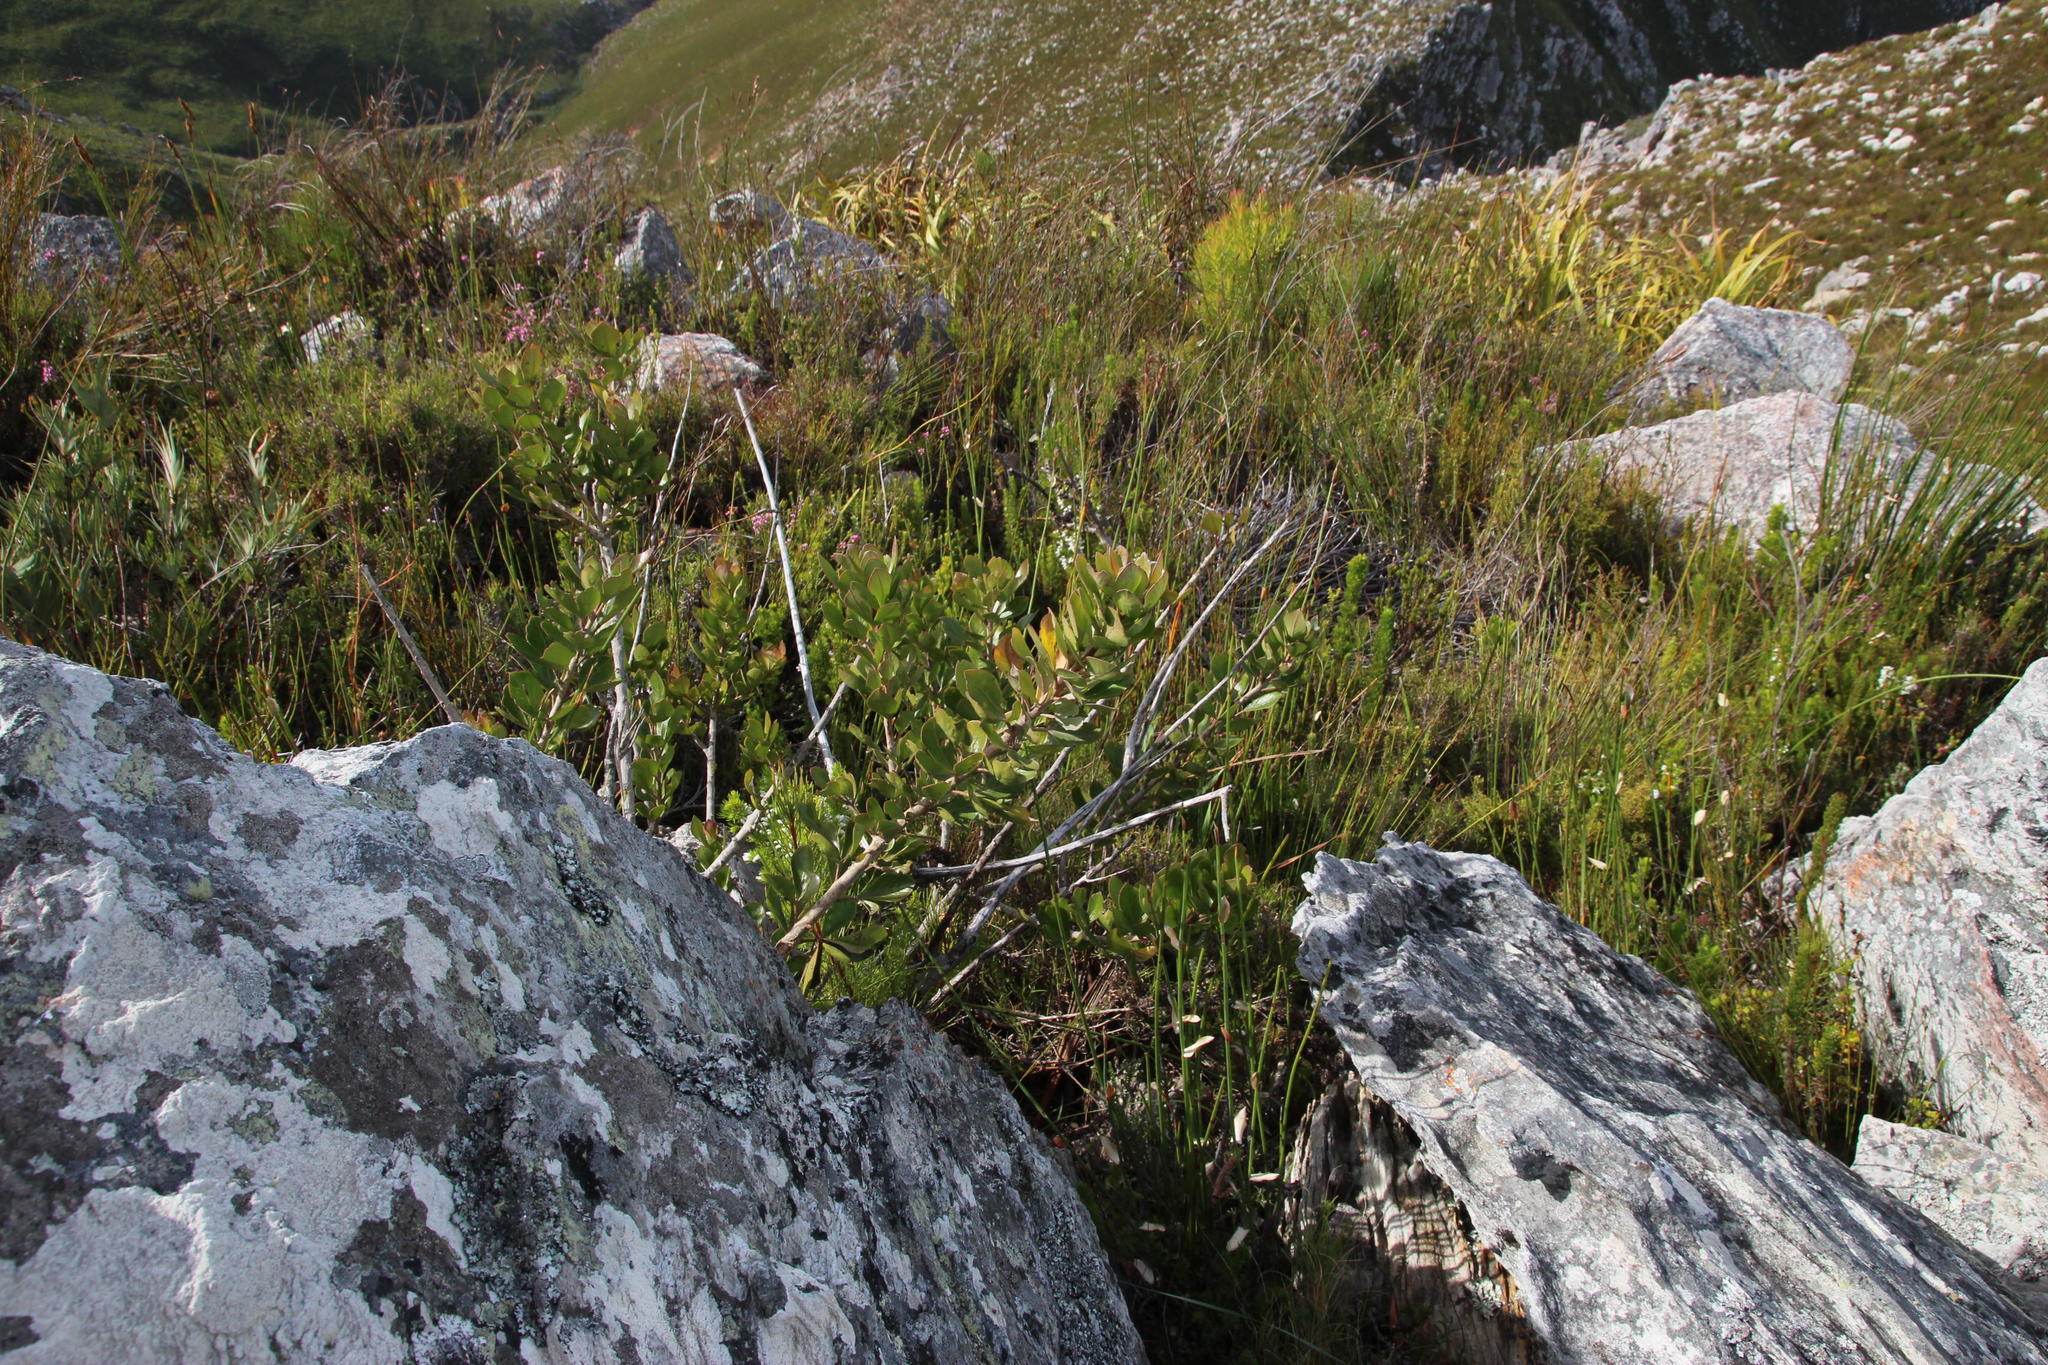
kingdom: Plantae
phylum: Tracheophyta
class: Magnoliopsida
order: Sapindales
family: Anacardiaceae
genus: Searsia
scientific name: Searsia scytophylla
